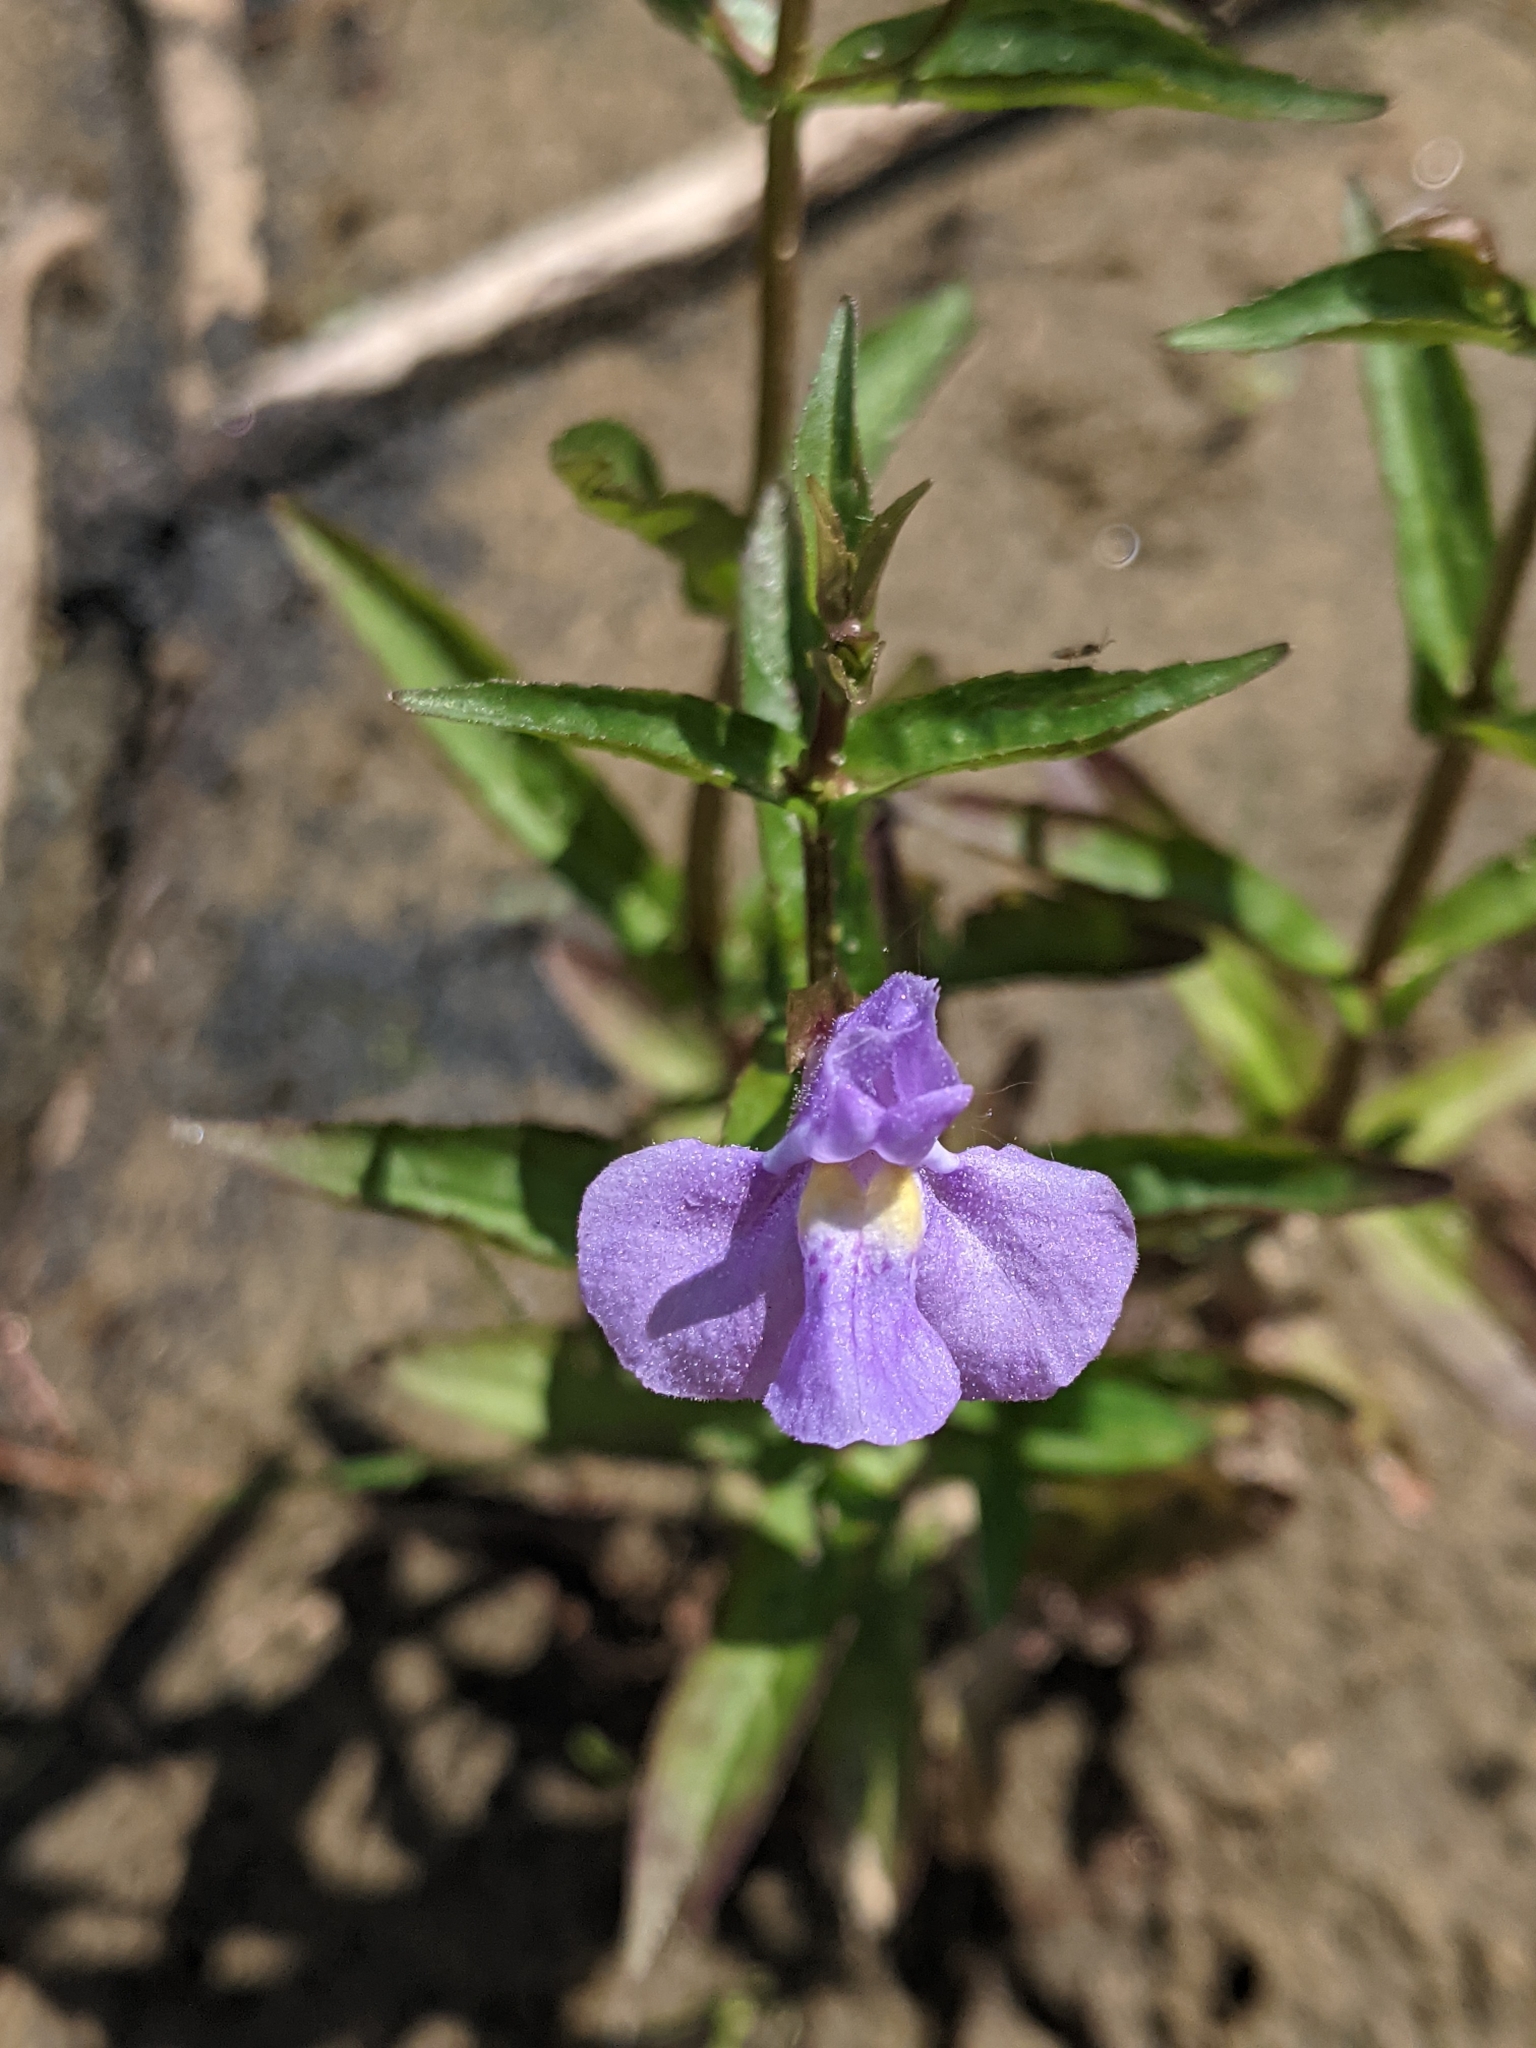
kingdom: Plantae
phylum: Tracheophyta
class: Magnoliopsida
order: Lamiales
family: Phrymaceae
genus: Mimulus
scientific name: Mimulus ringens
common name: Allegheny monkeyflower
